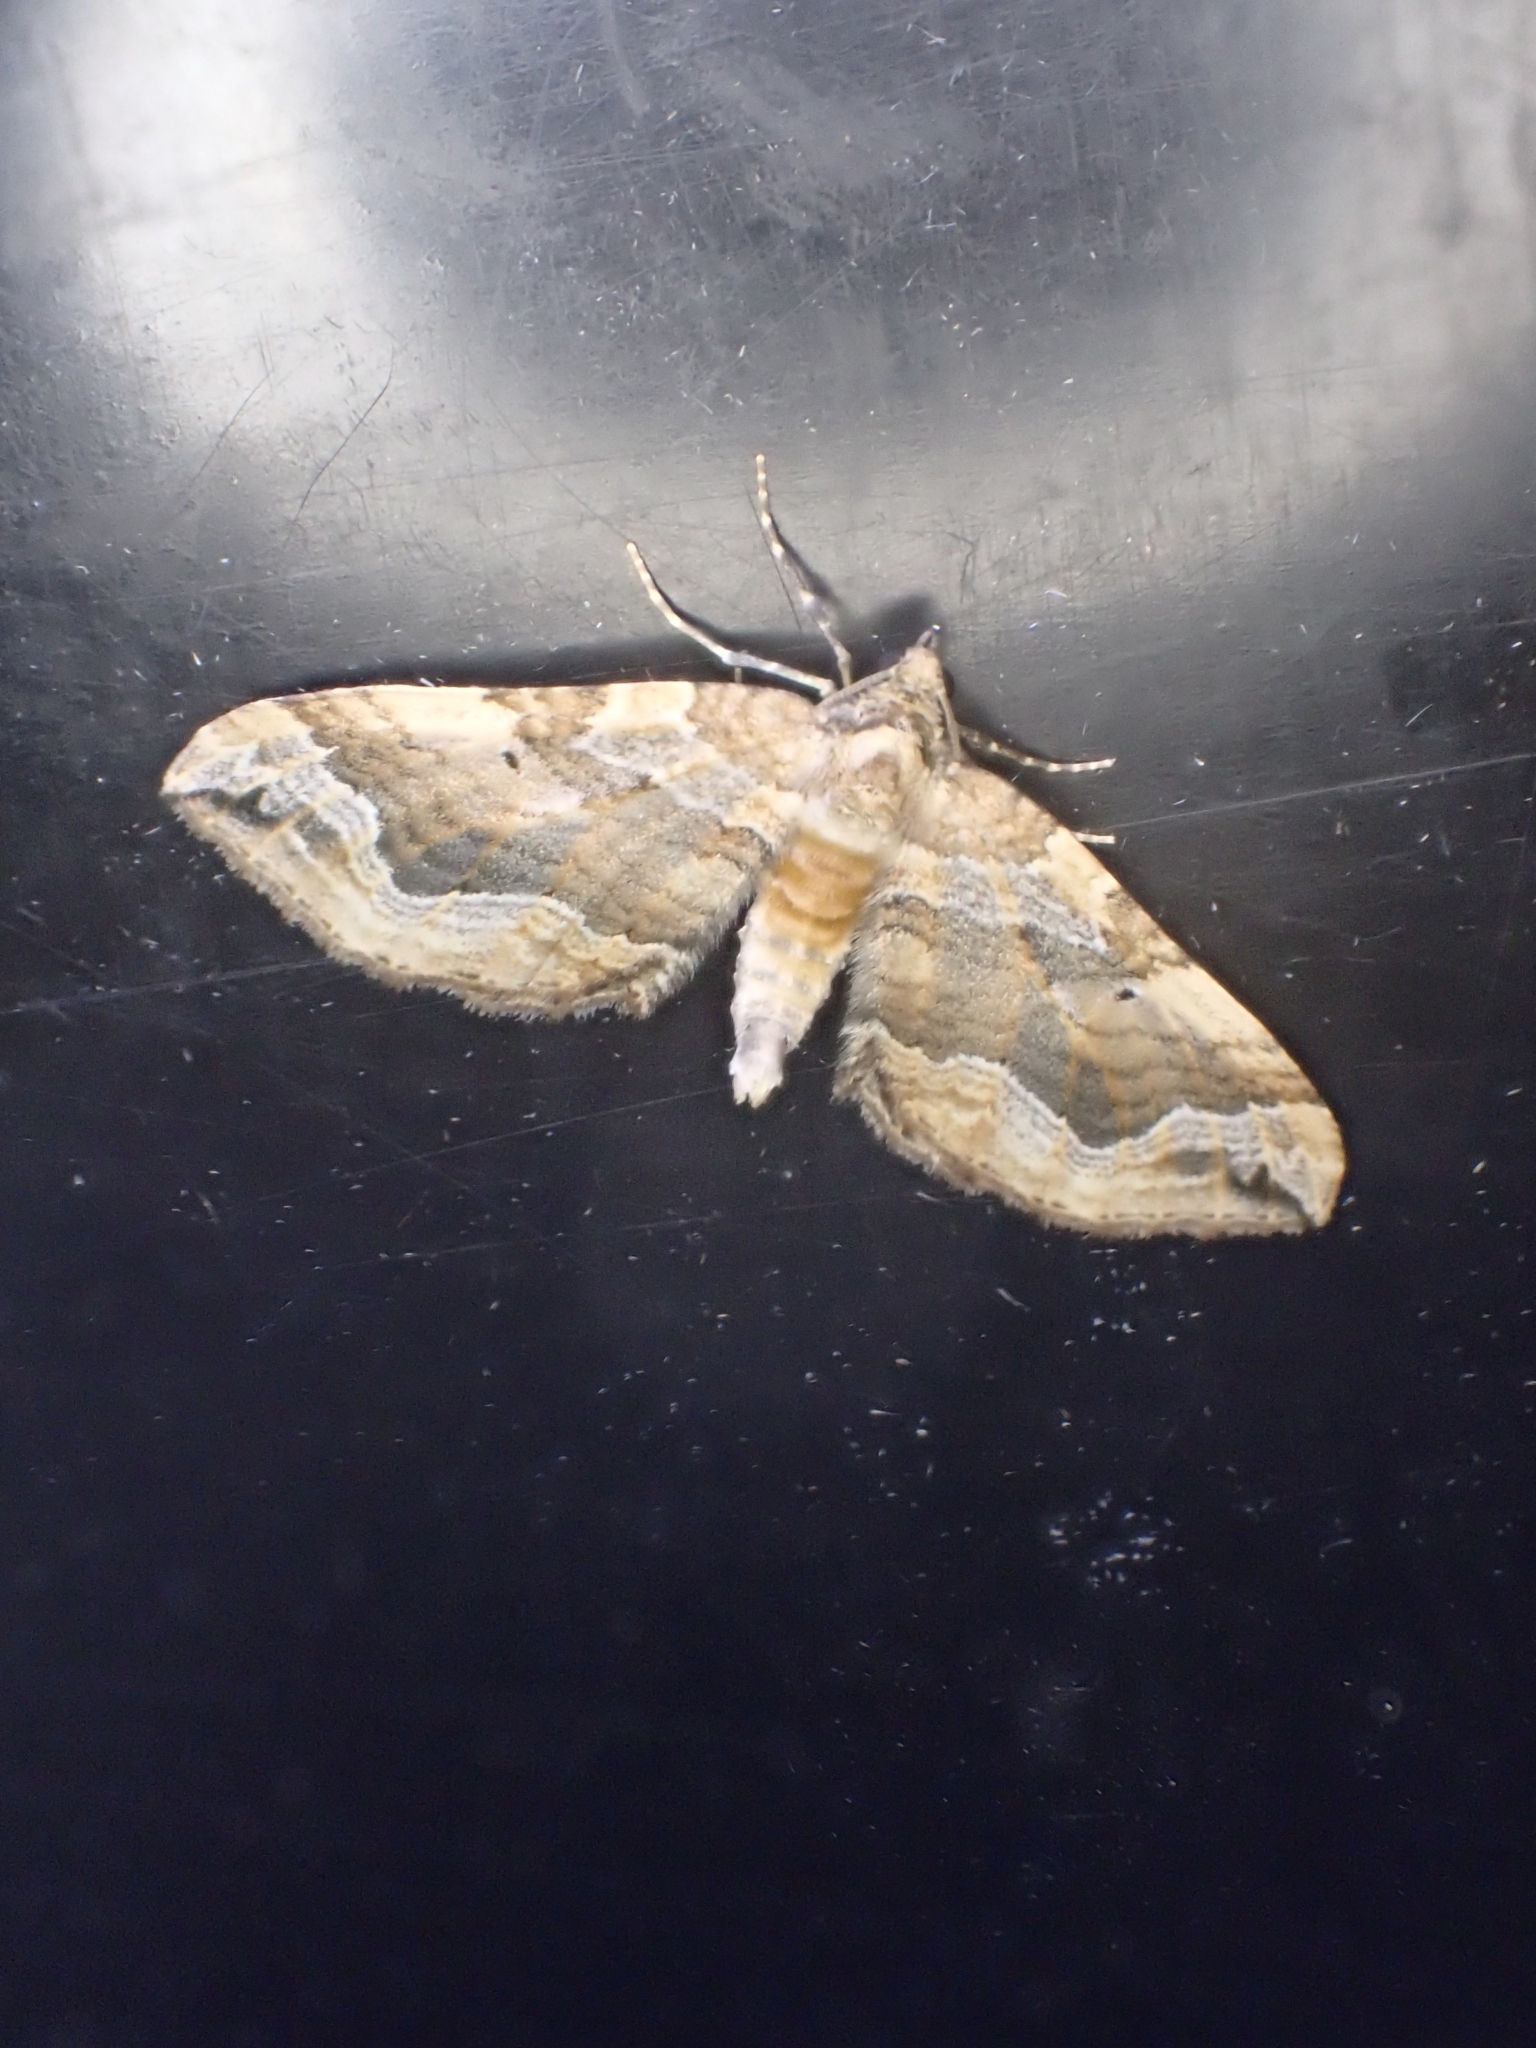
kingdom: Animalia
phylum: Arthropoda
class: Insecta
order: Lepidoptera
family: Geometridae
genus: Pelurga
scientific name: Pelurga comitata
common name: Dark spinach
